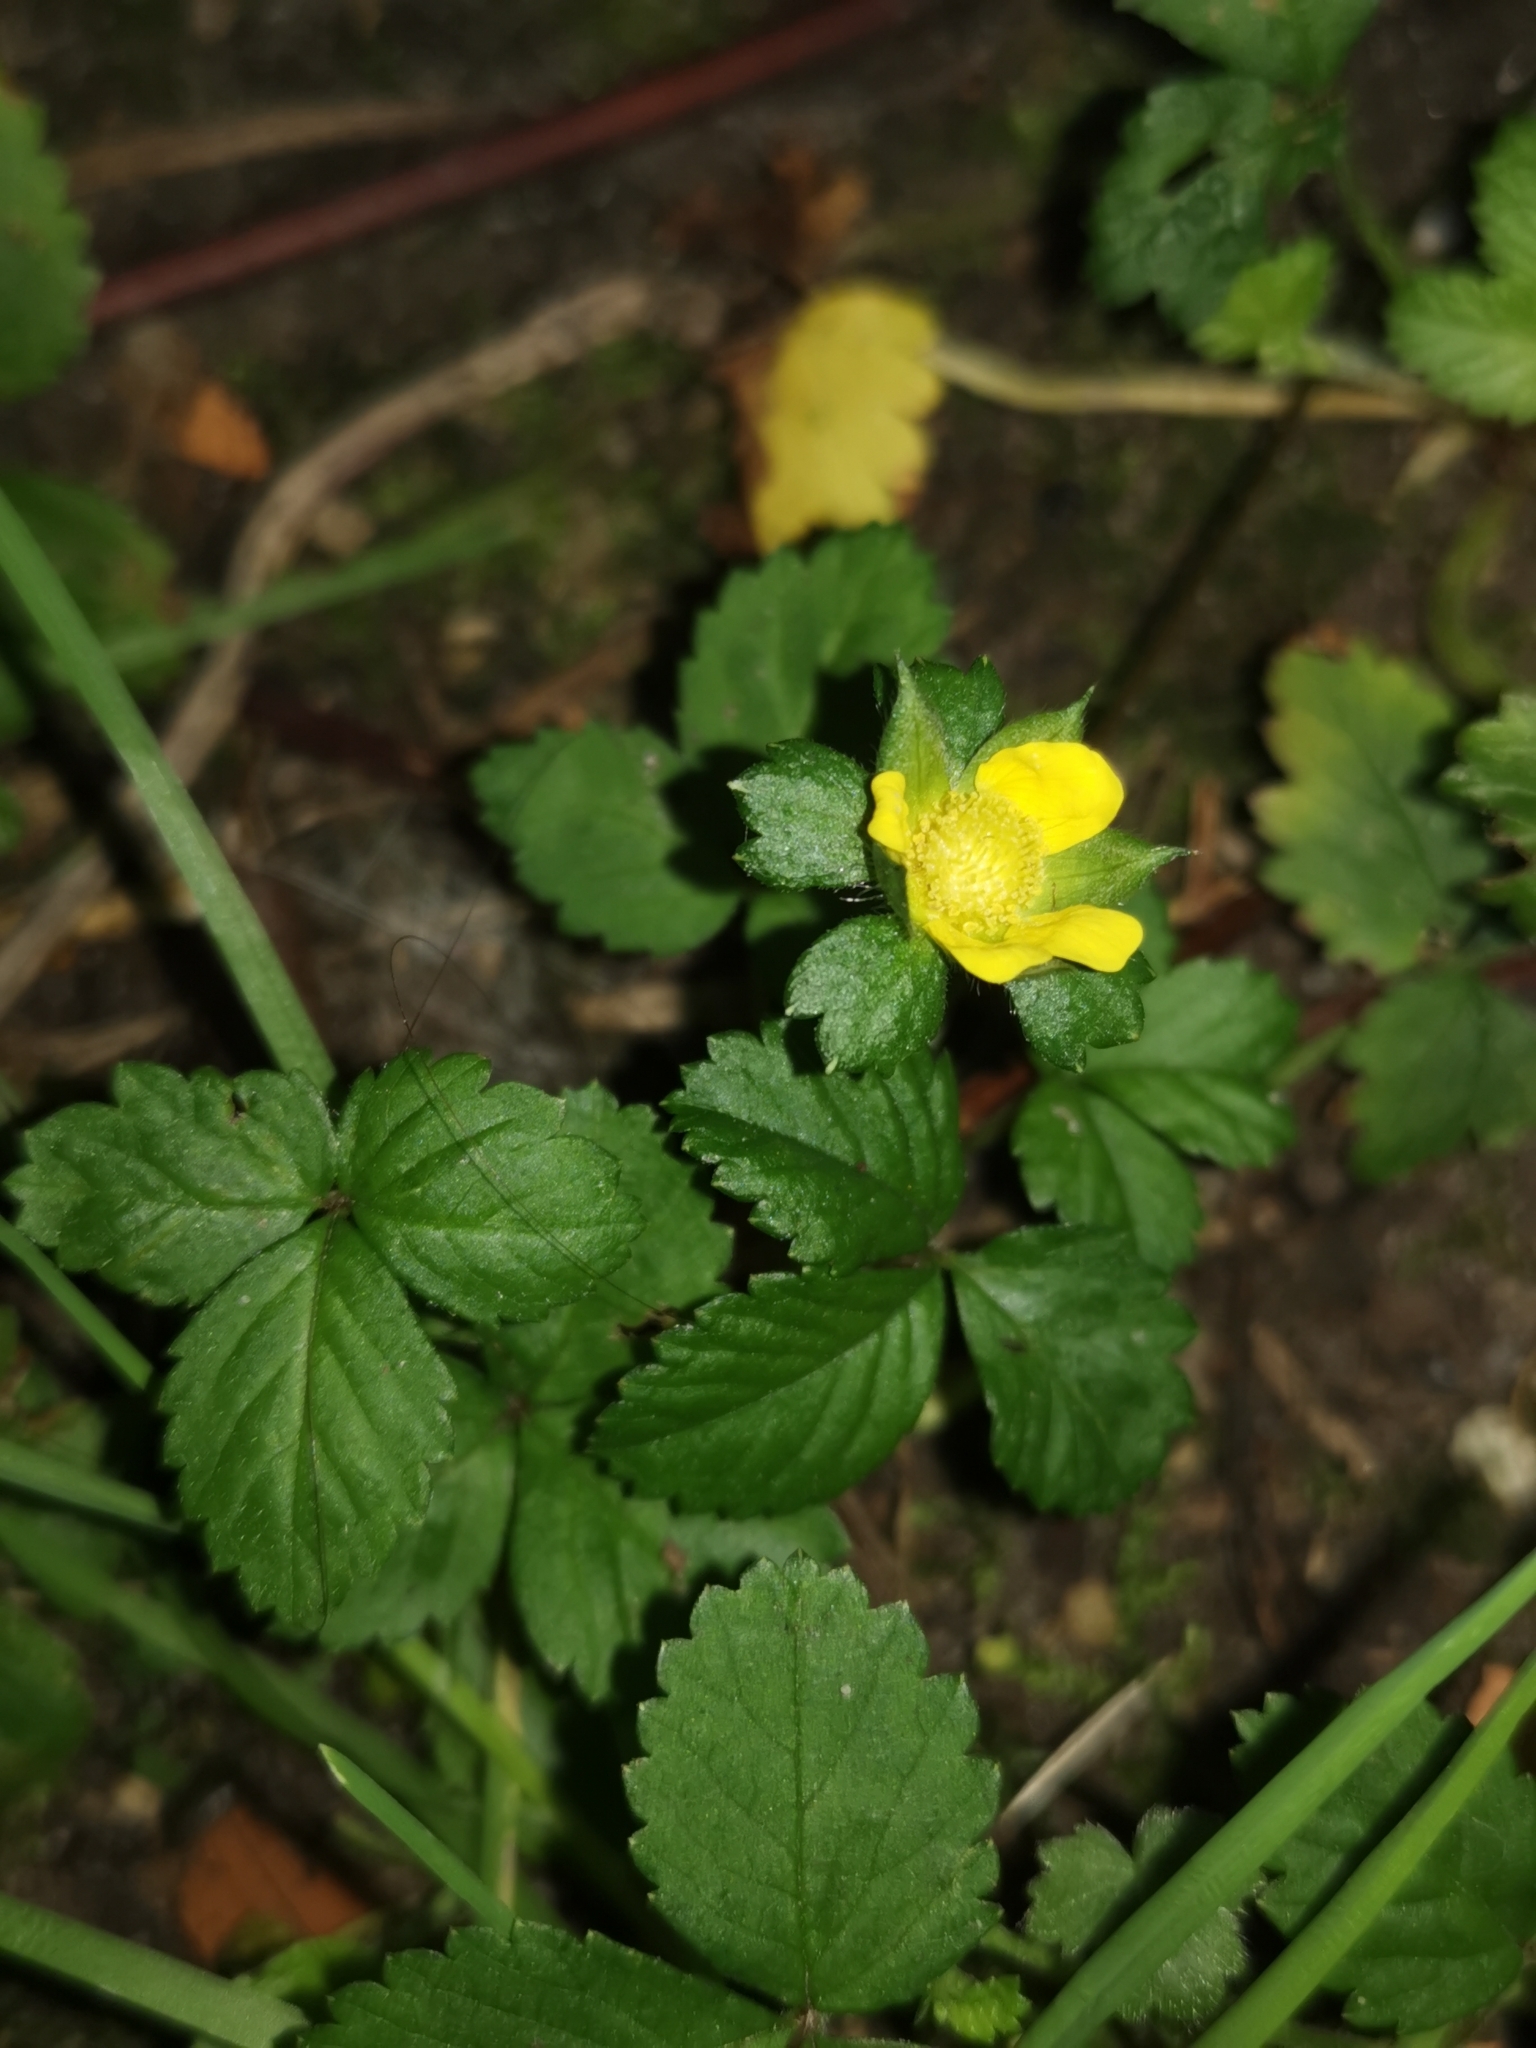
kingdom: Plantae
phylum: Tracheophyta
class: Magnoliopsida
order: Rosales
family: Rosaceae
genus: Potentilla
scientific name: Potentilla indica
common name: Yellow-flowered strawberry
